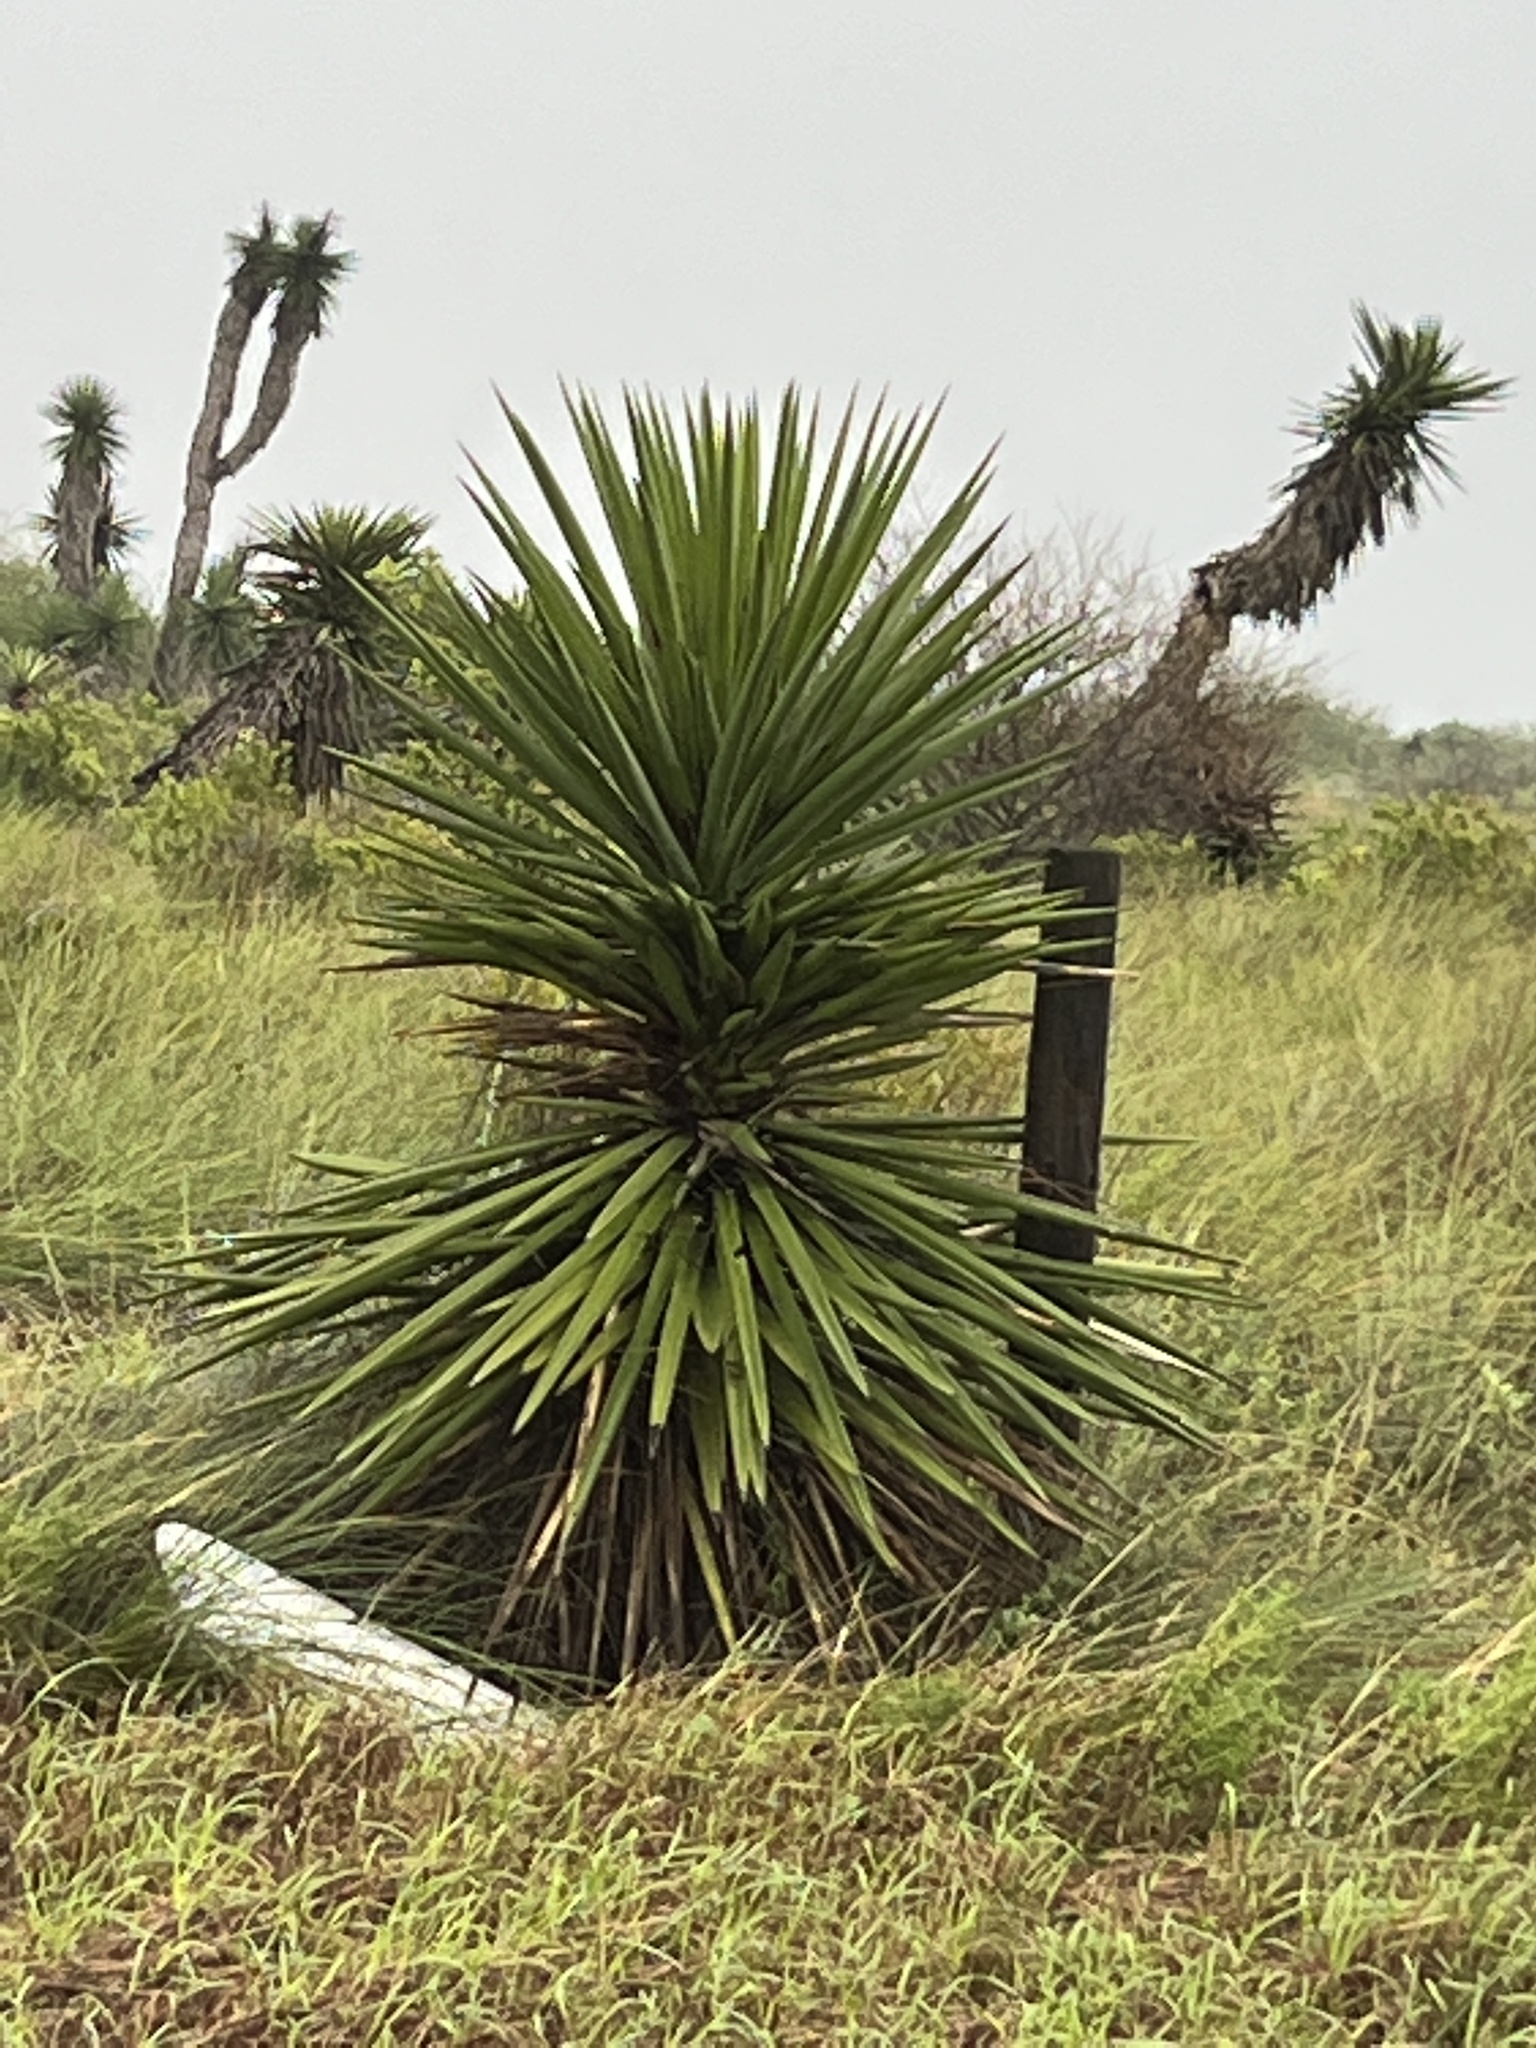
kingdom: Plantae
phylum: Tracheophyta
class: Liliopsida
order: Asparagales
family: Asparagaceae
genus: Yucca
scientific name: Yucca treculiana
